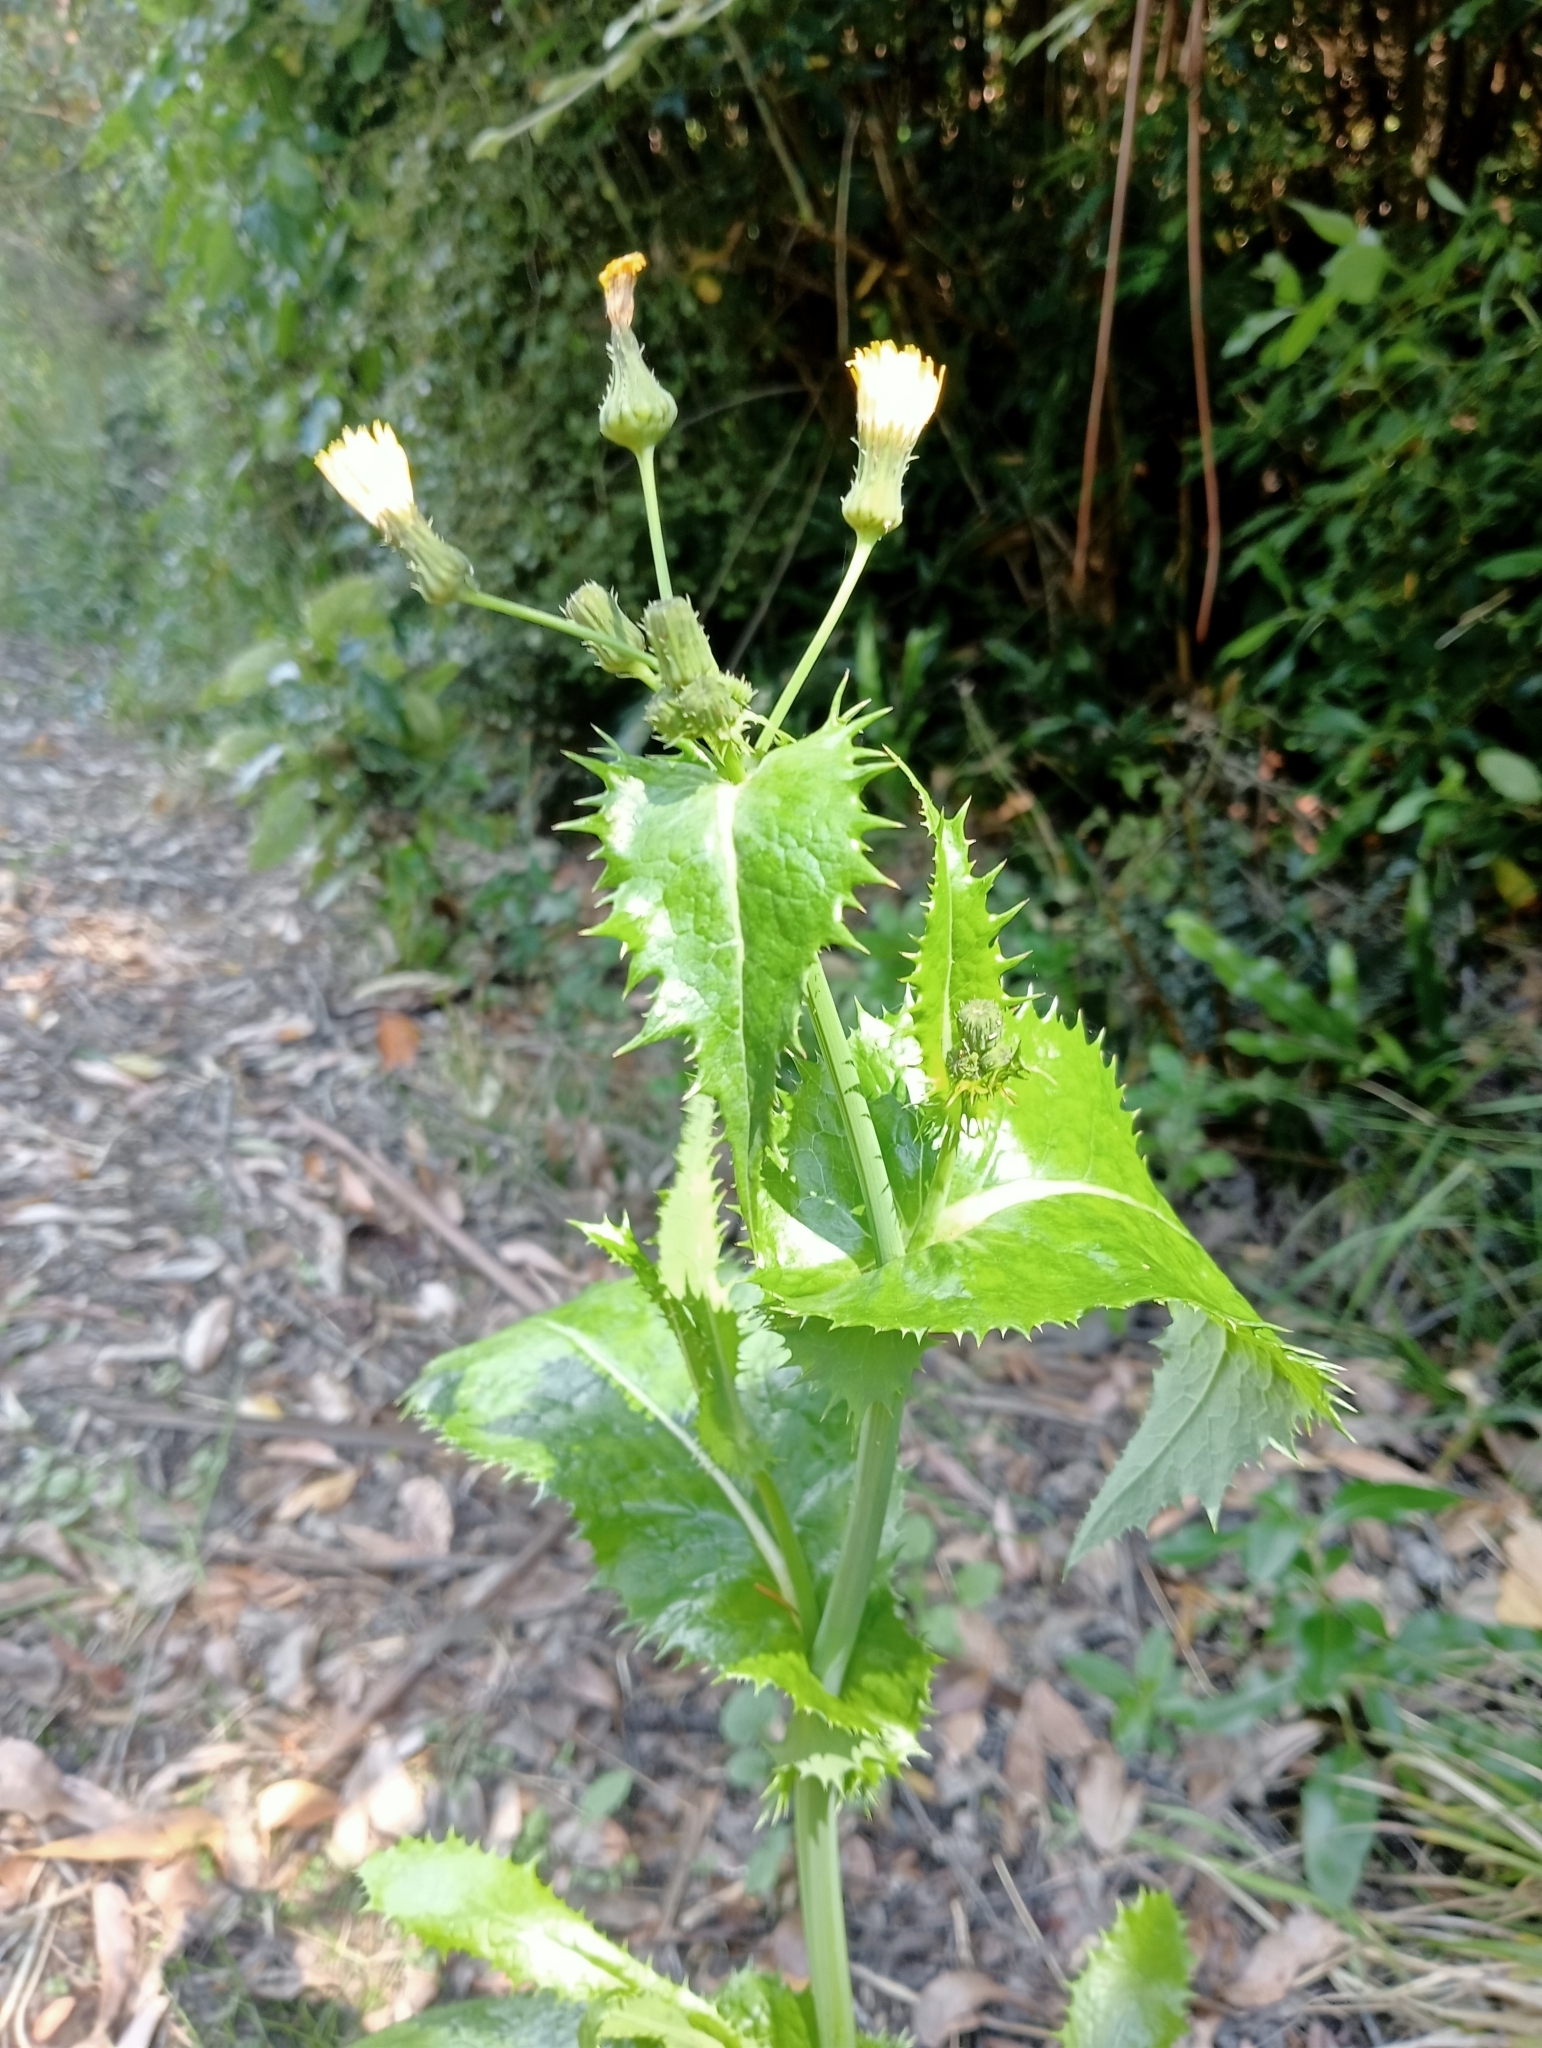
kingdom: Plantae
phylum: Tracheophyta
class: Magnoliopsida
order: Asterales
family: Asteraceae
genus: Sonchus
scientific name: Sonchus asper
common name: Prickly sow-thistle
